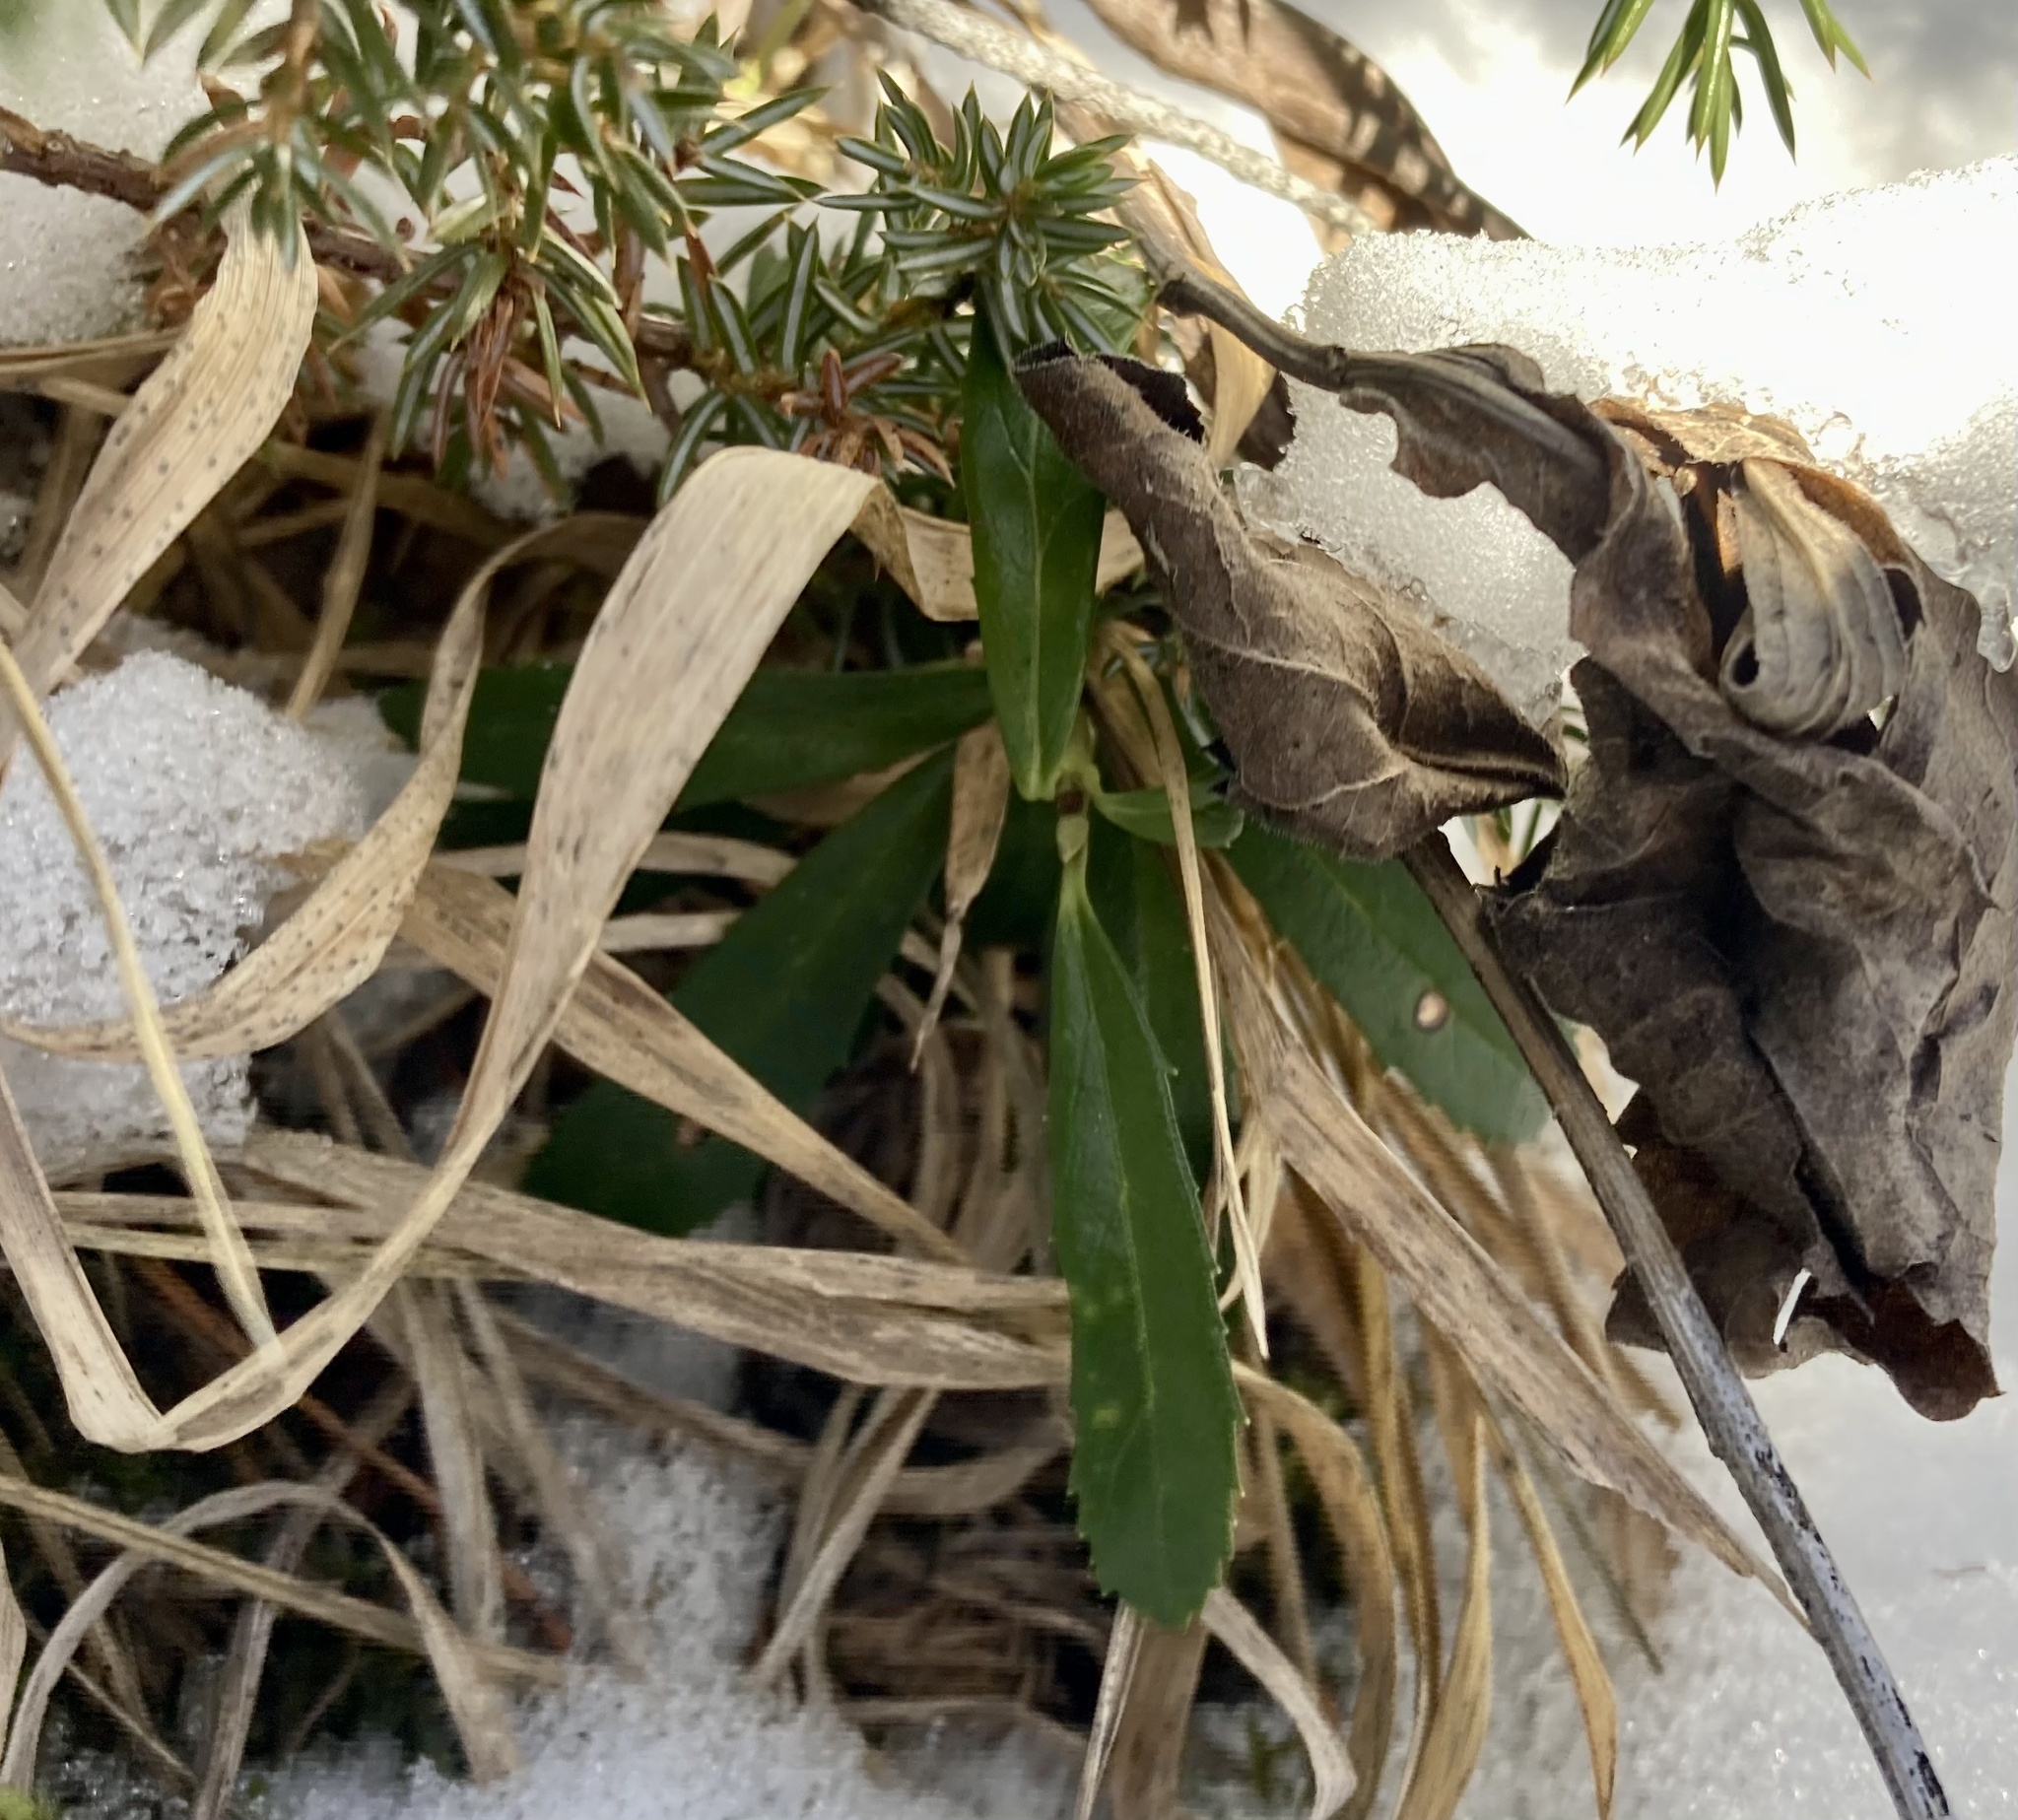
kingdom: Plantae
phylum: Tracheophyta
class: Magnoliopsida
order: Ericales
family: Ericaceae
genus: Chimaphila
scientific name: Chimaphila umbellata
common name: Pipsissewa
